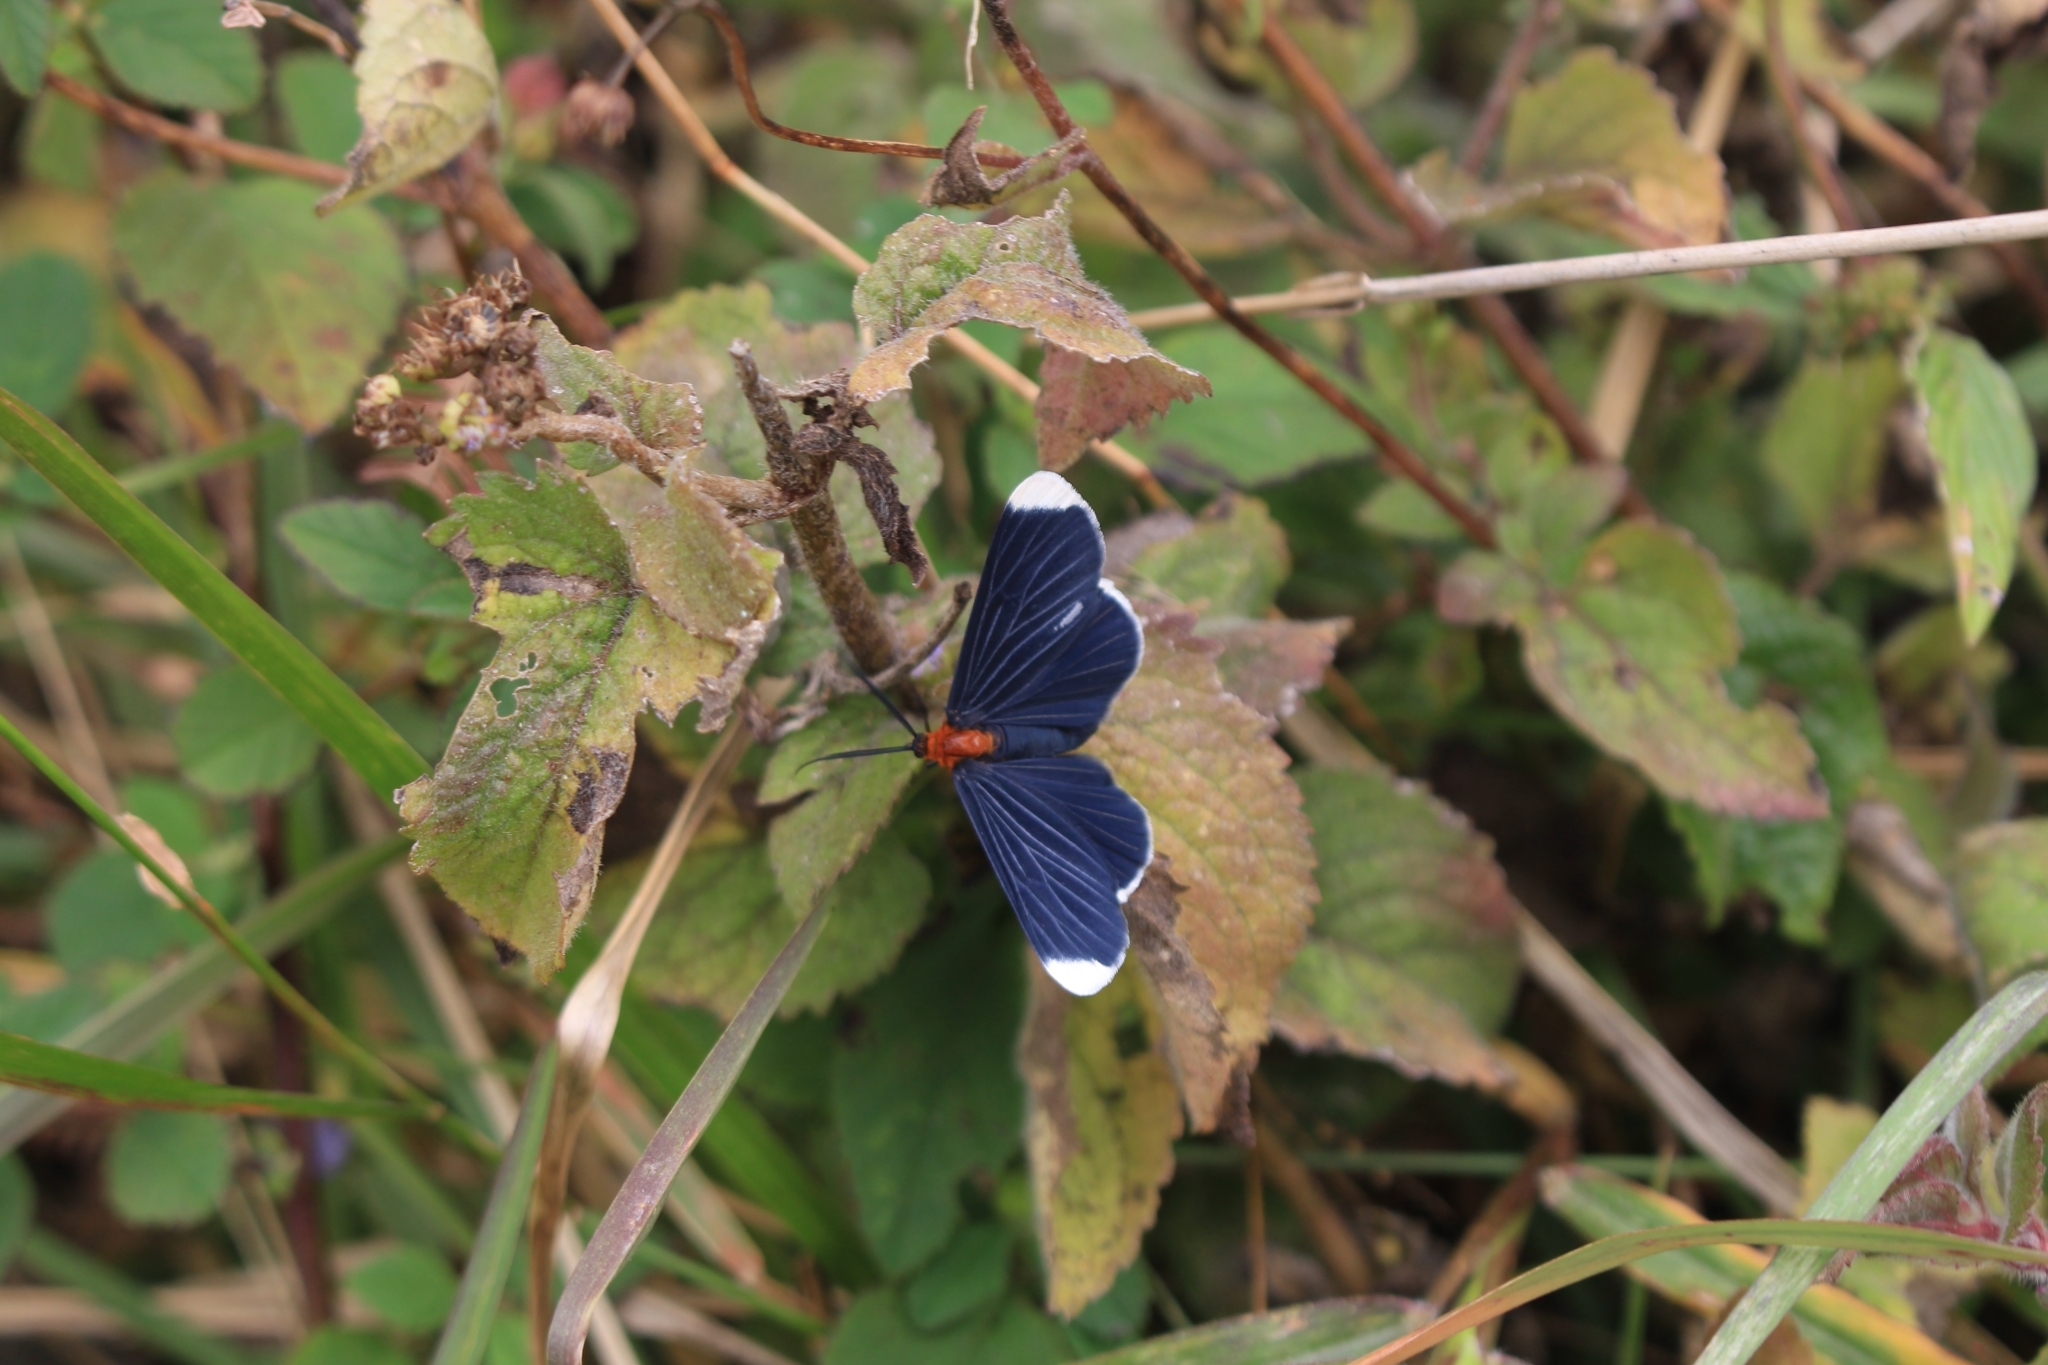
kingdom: Animalia
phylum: Arthropoda
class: Insecta
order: Lepidoptera
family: Geometridae
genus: Melanchroia
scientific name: Melanchroia chephise
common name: White-tipped black
